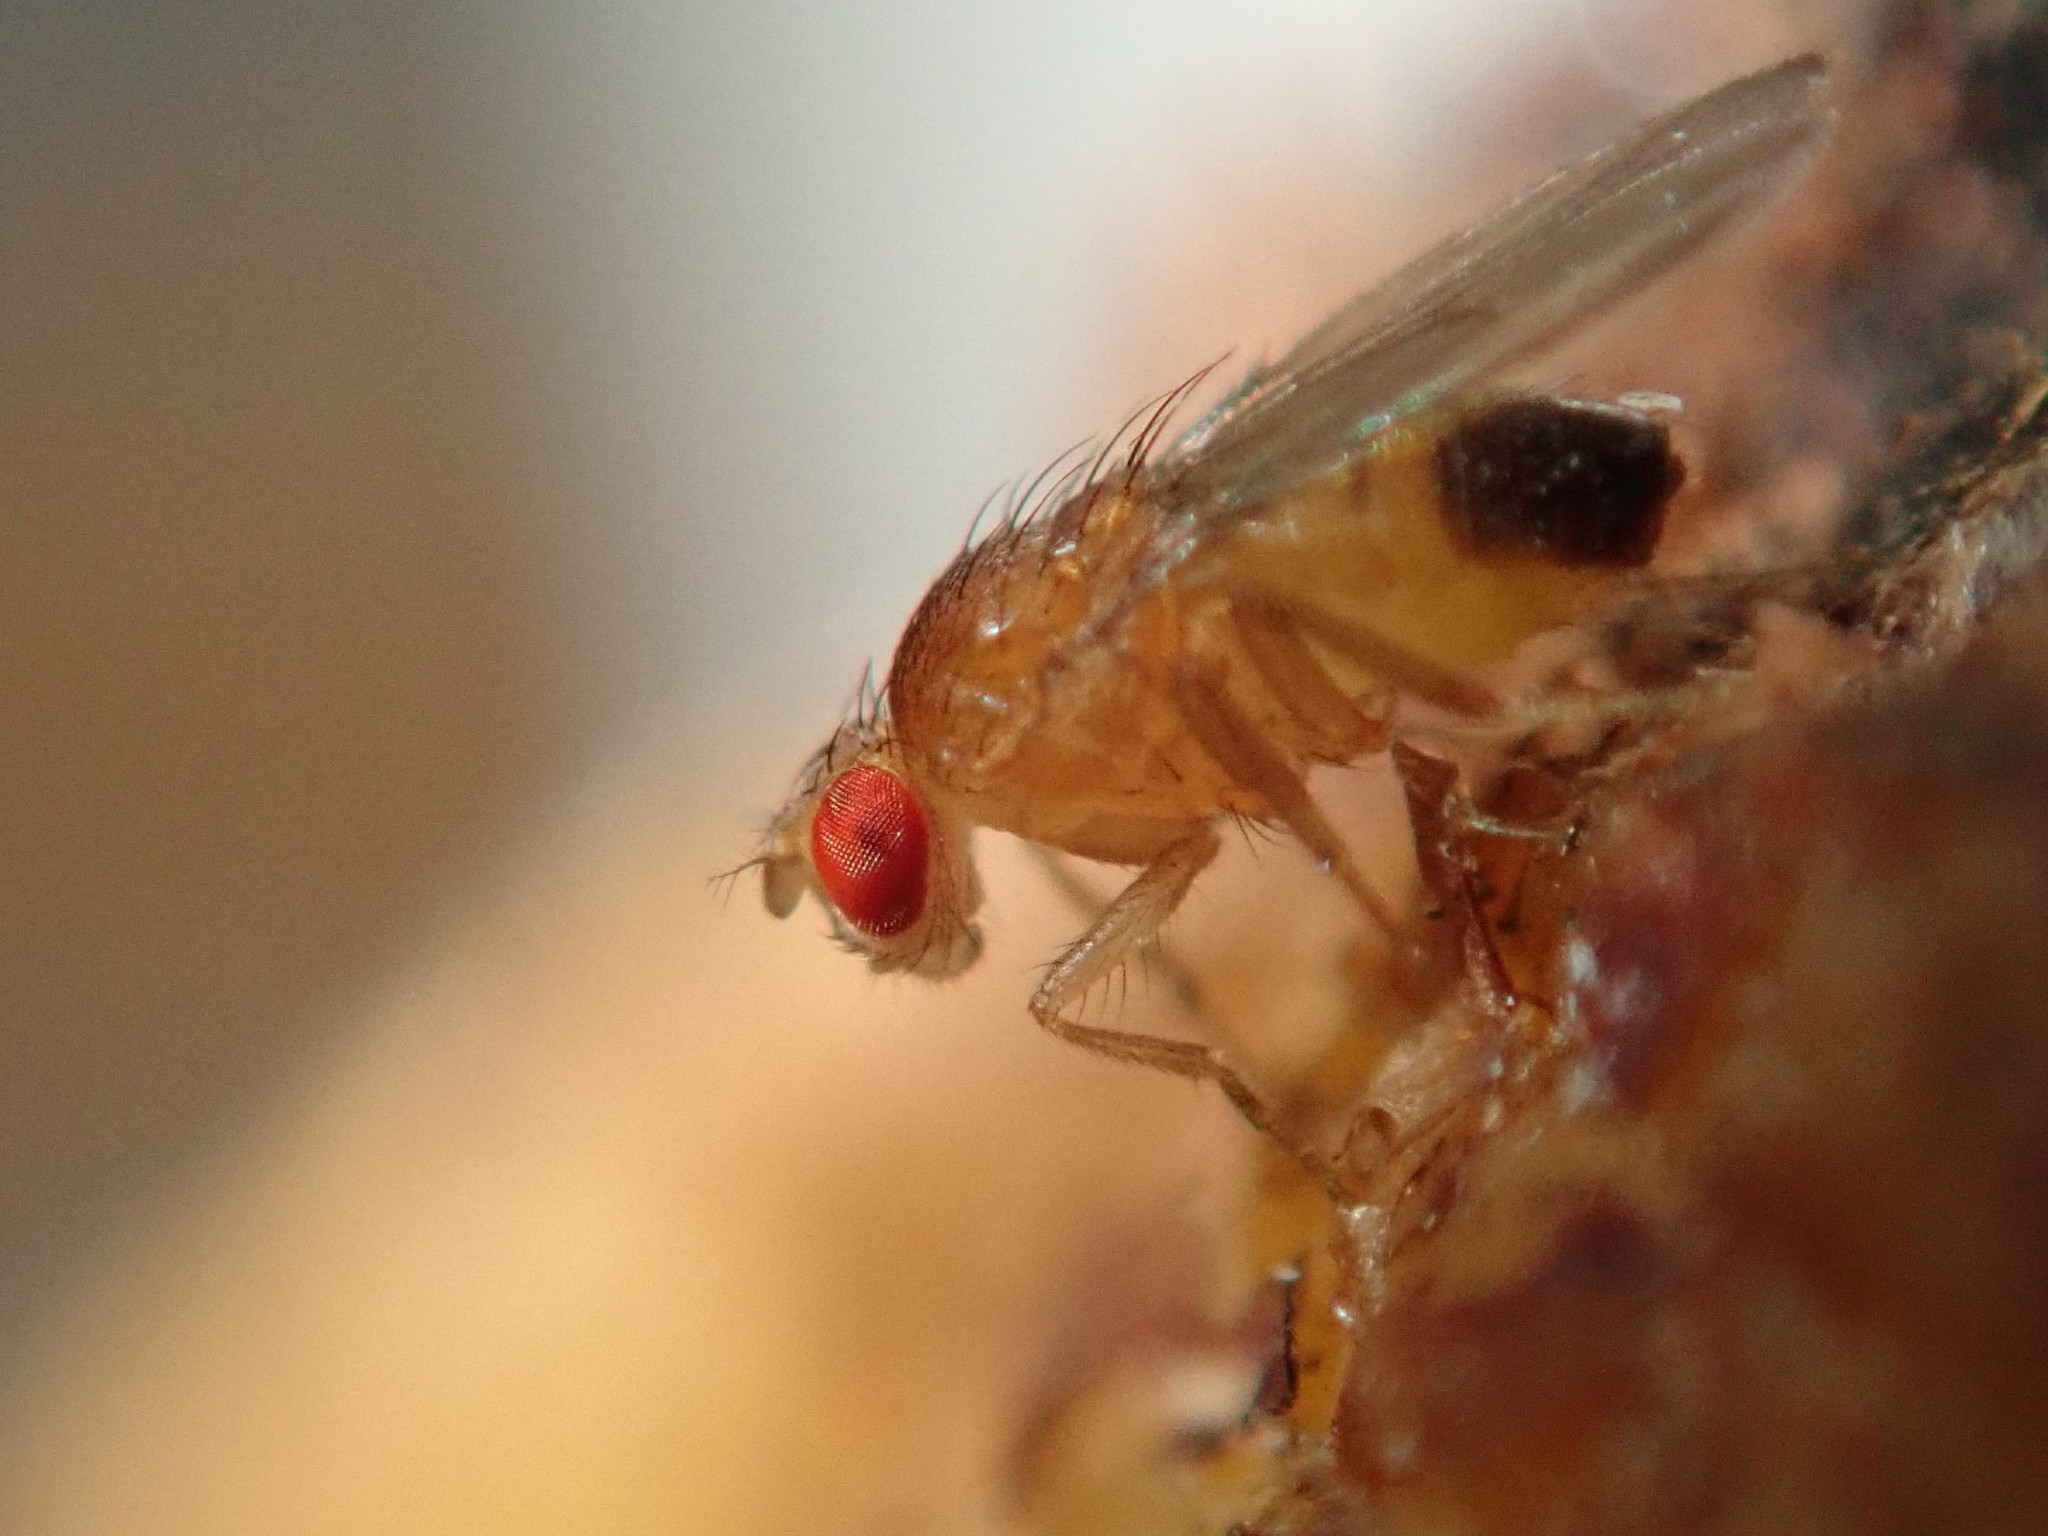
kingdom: Animalia
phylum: Arthropoda
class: Insecta
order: Diptera
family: Drosophilidae
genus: Drosophila
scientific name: Drosophila melanogaster
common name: Pomace fly
